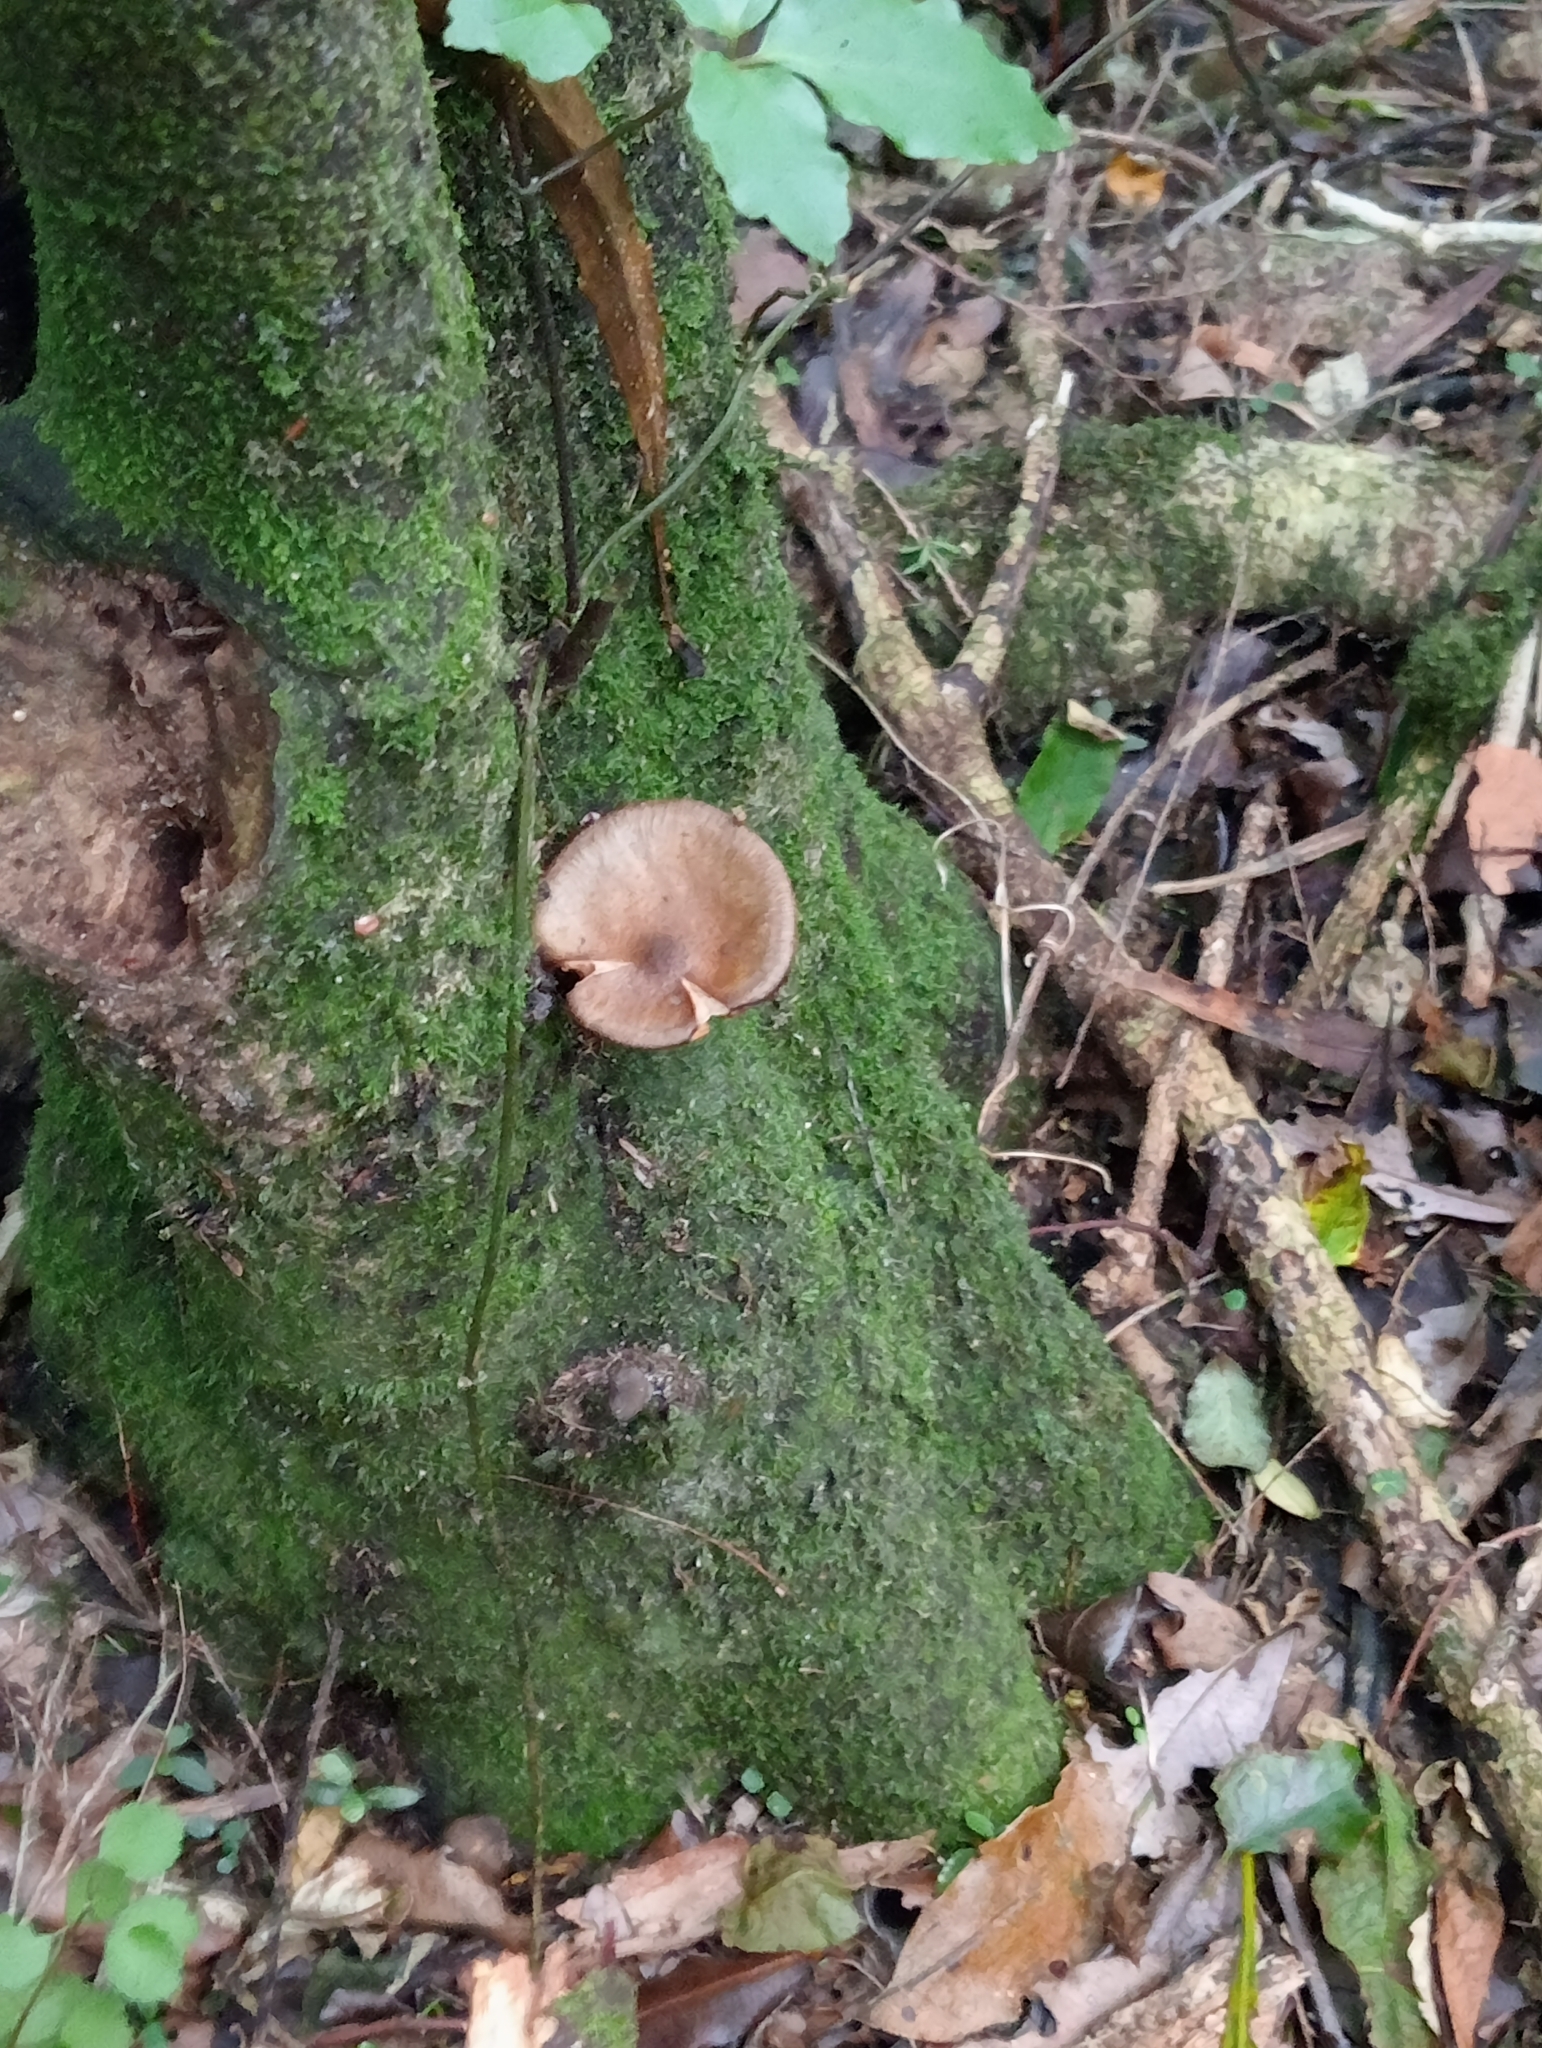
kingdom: Fungi
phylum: Basidiomycota
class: Agaricomycetes
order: Agaricales
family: Physalacriaceae
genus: Armillaria
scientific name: Armillaria novae-zelandiae
